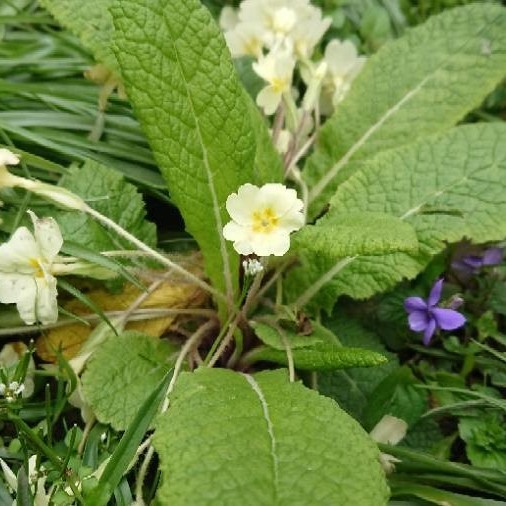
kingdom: Plantae
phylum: Tracheophyta
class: Magnoliopsida
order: Ericales
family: Primulaceae
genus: Primula
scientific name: Primula vulgaris
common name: Primrose
